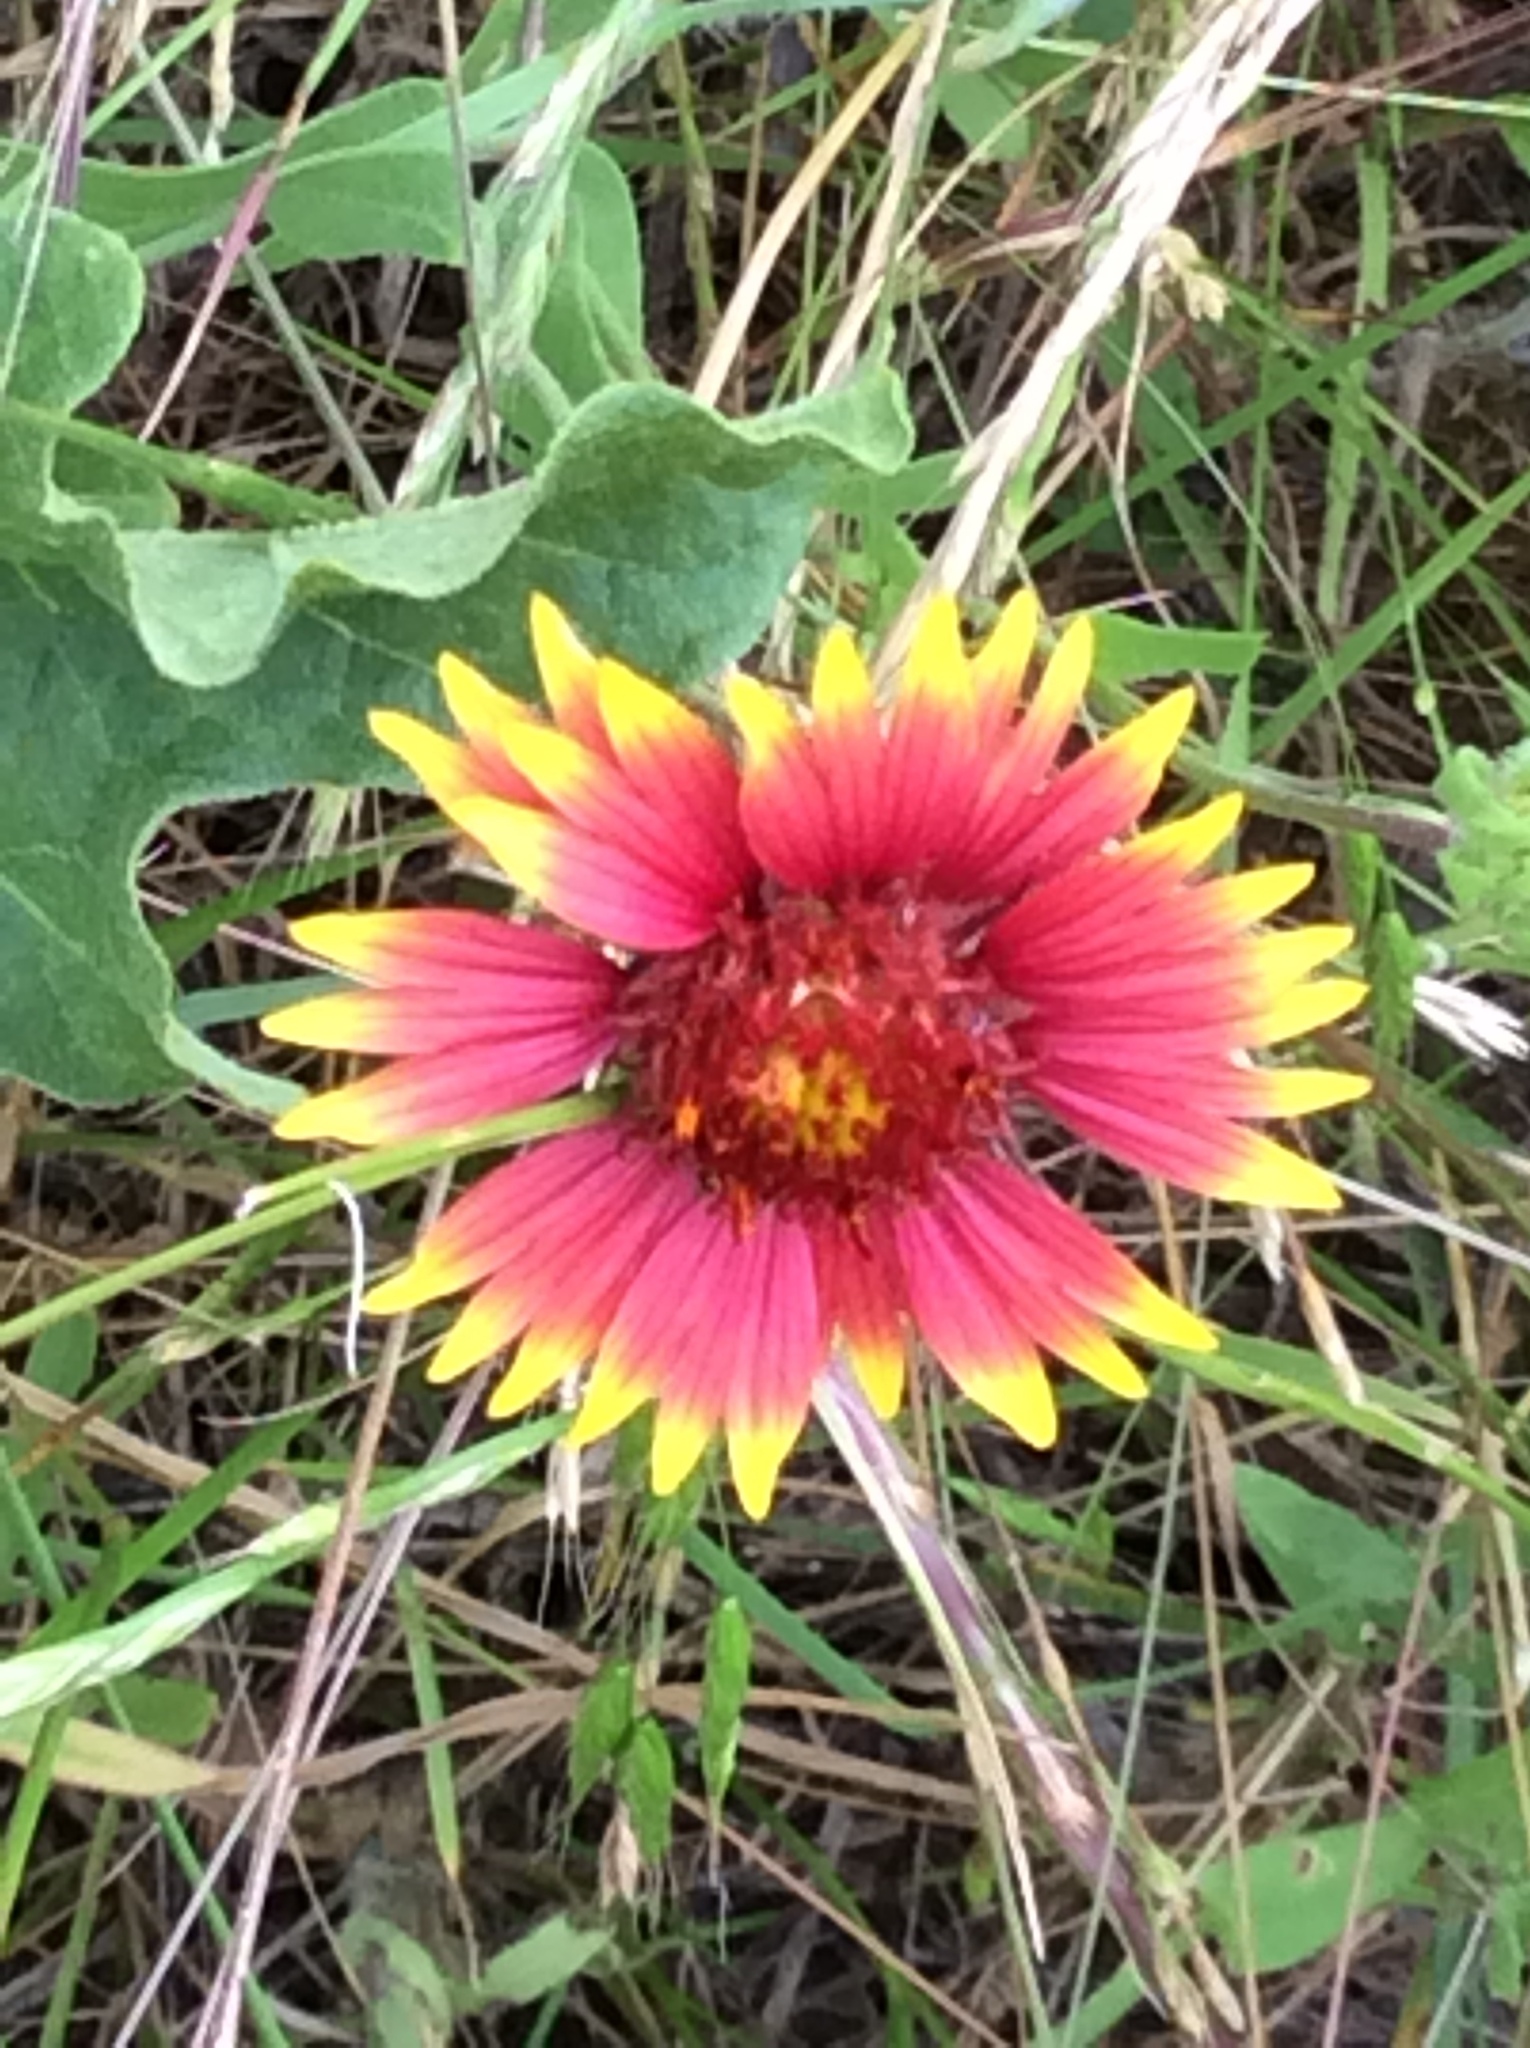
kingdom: Plantae
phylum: Tracheophyta
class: Magnoliopsida
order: Asterales
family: Asteraceae
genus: Gaillardia
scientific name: Gaillardia pulchella
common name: Firewheel
